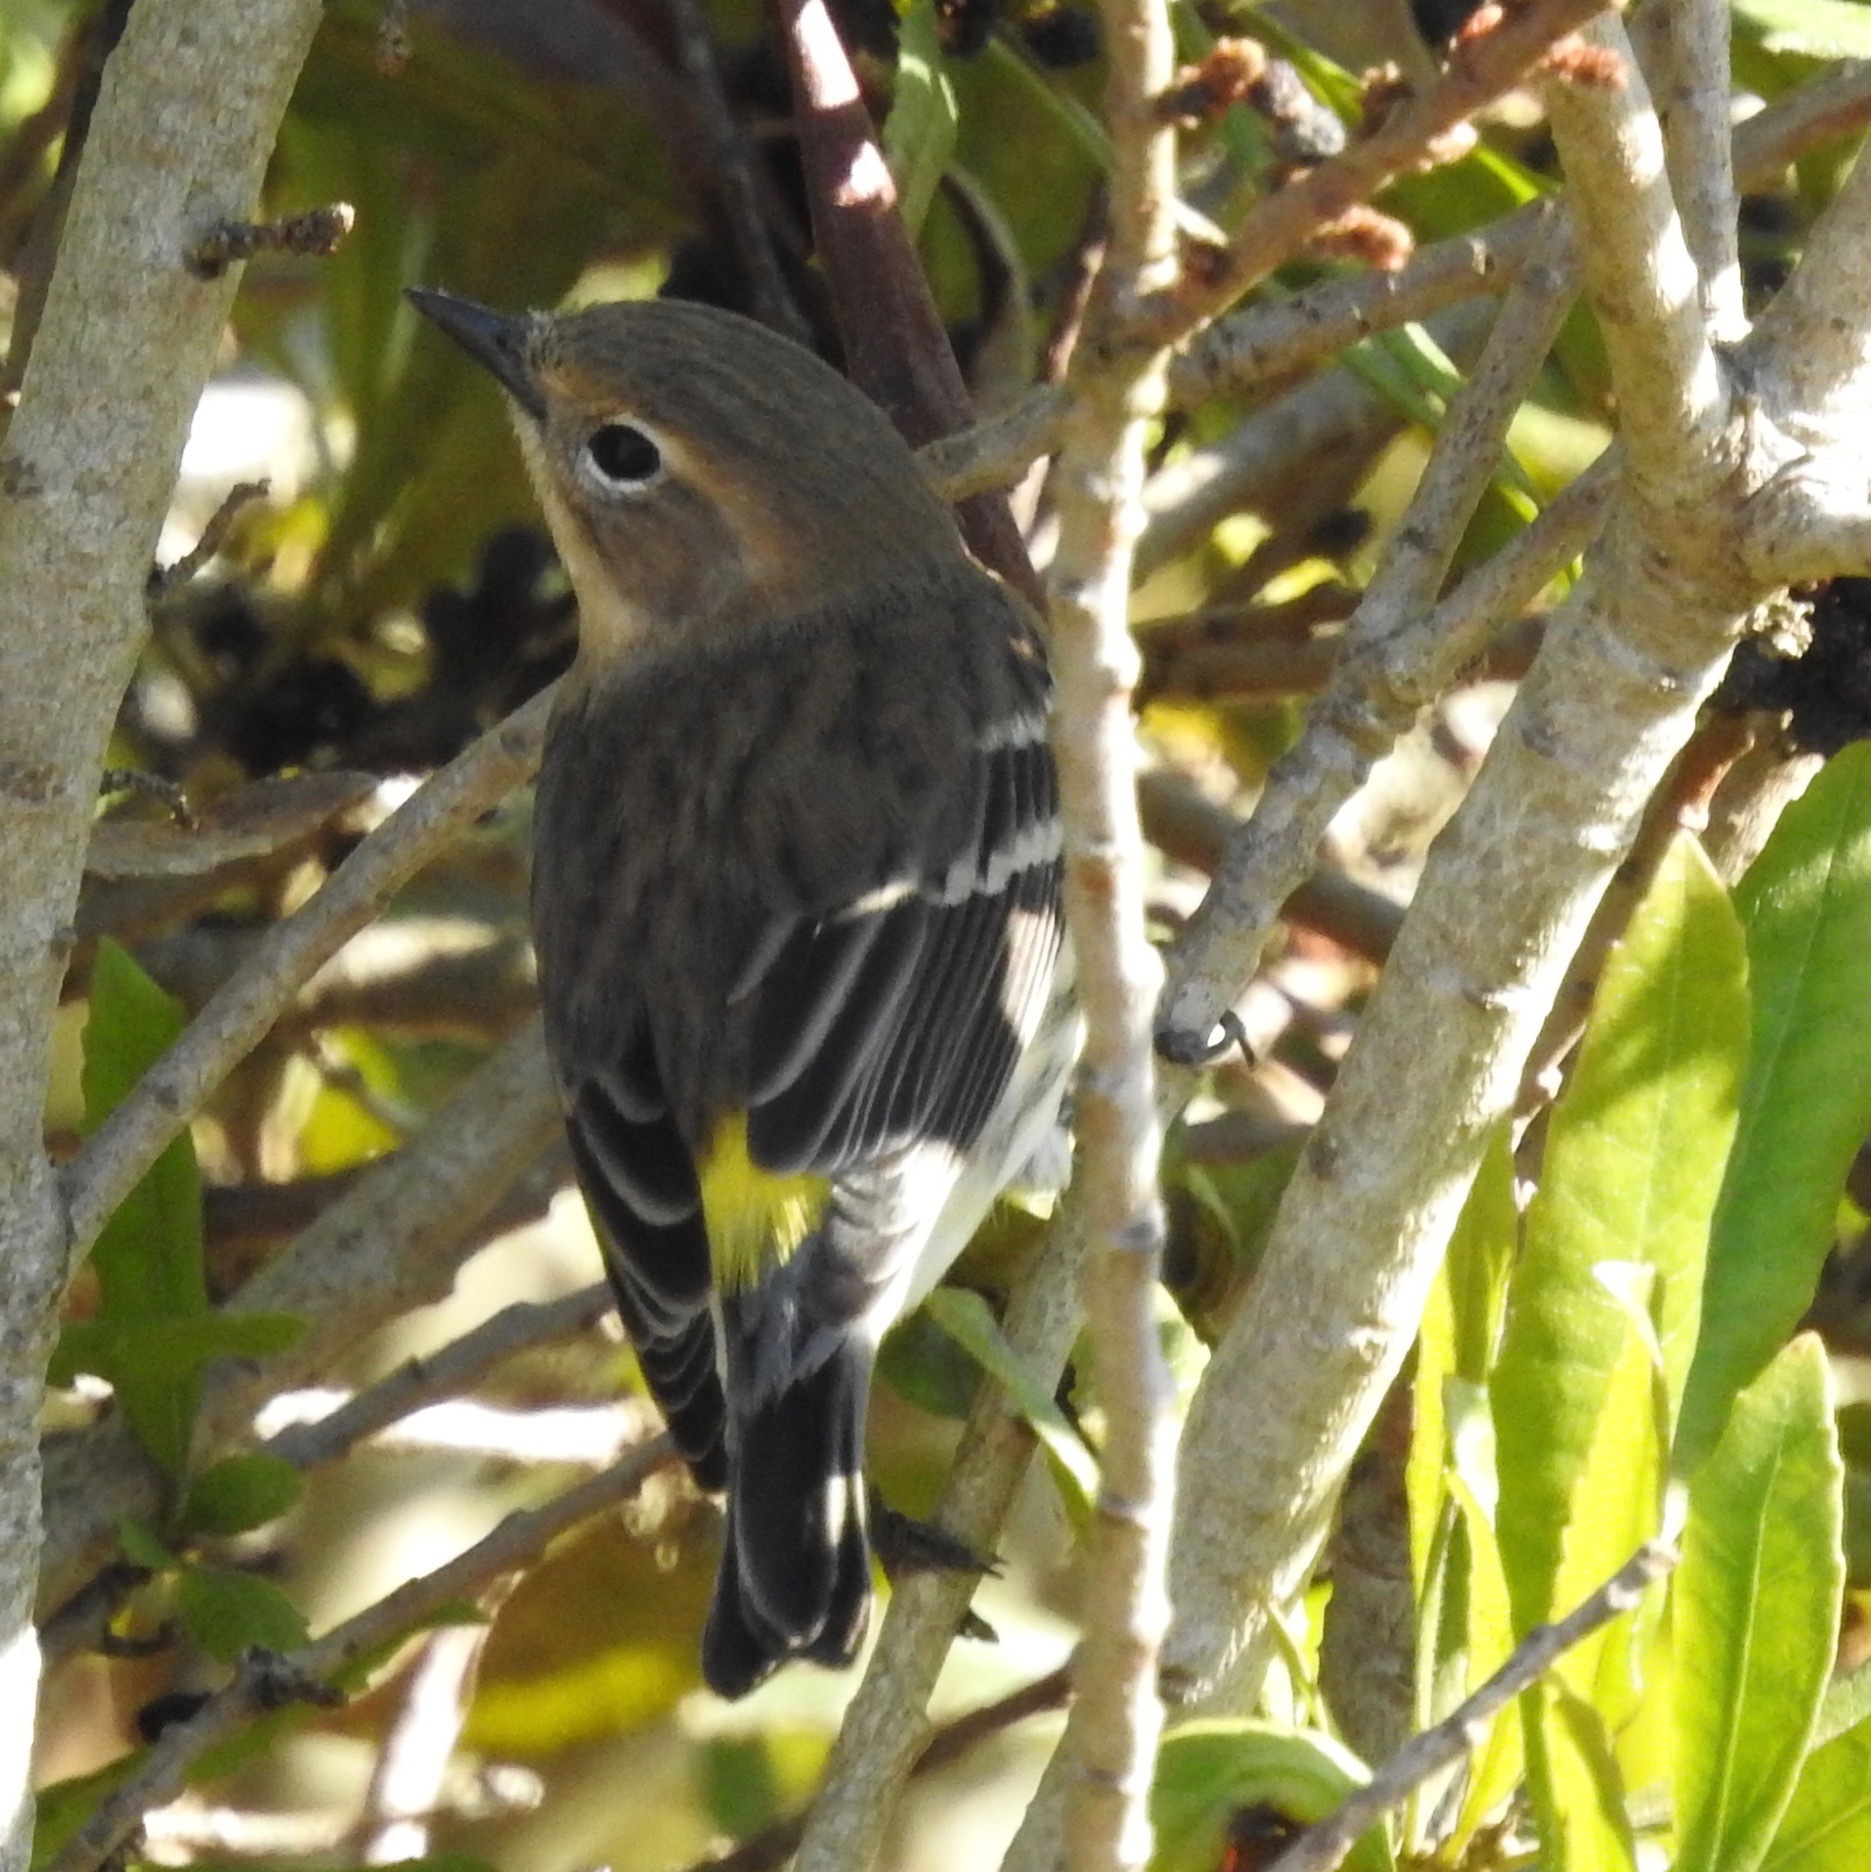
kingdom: Animalia
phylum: Chordata
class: Aves
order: Passeriformes
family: Parulidae
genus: Setophaga
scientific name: Setophaga coronata
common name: Myrtle warbler
